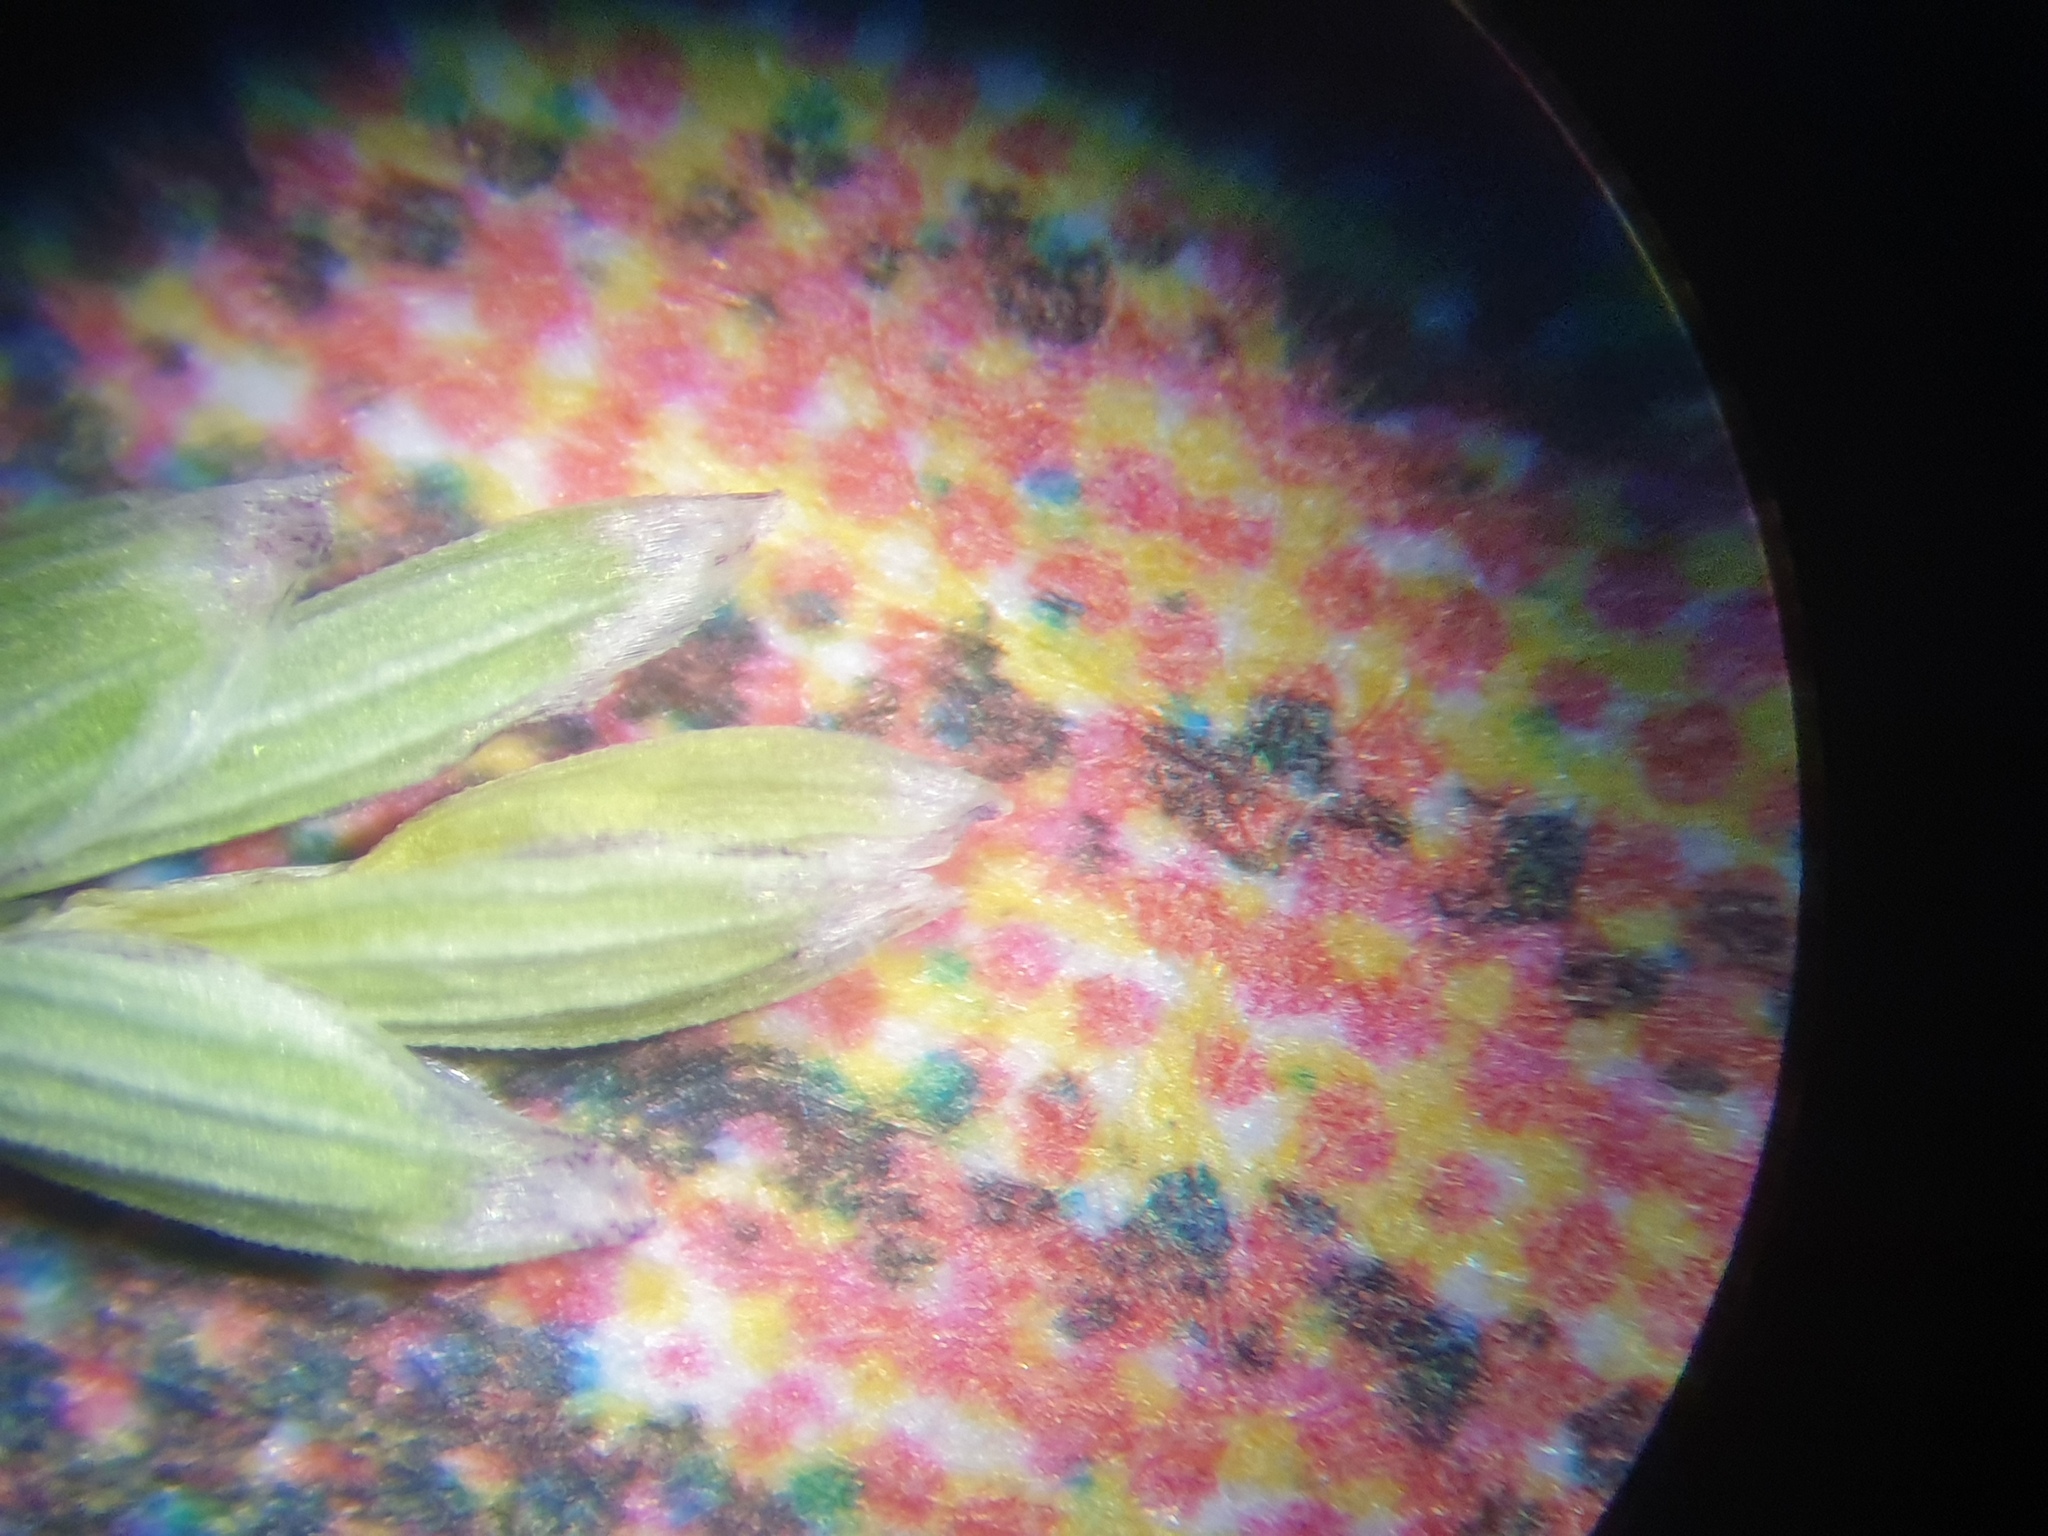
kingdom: Plantae
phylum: Tracheophyta
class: Liliopsida
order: Poales
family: Poaceae
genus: Glyceria
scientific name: Glyceria striata
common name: Fowl manna grass
